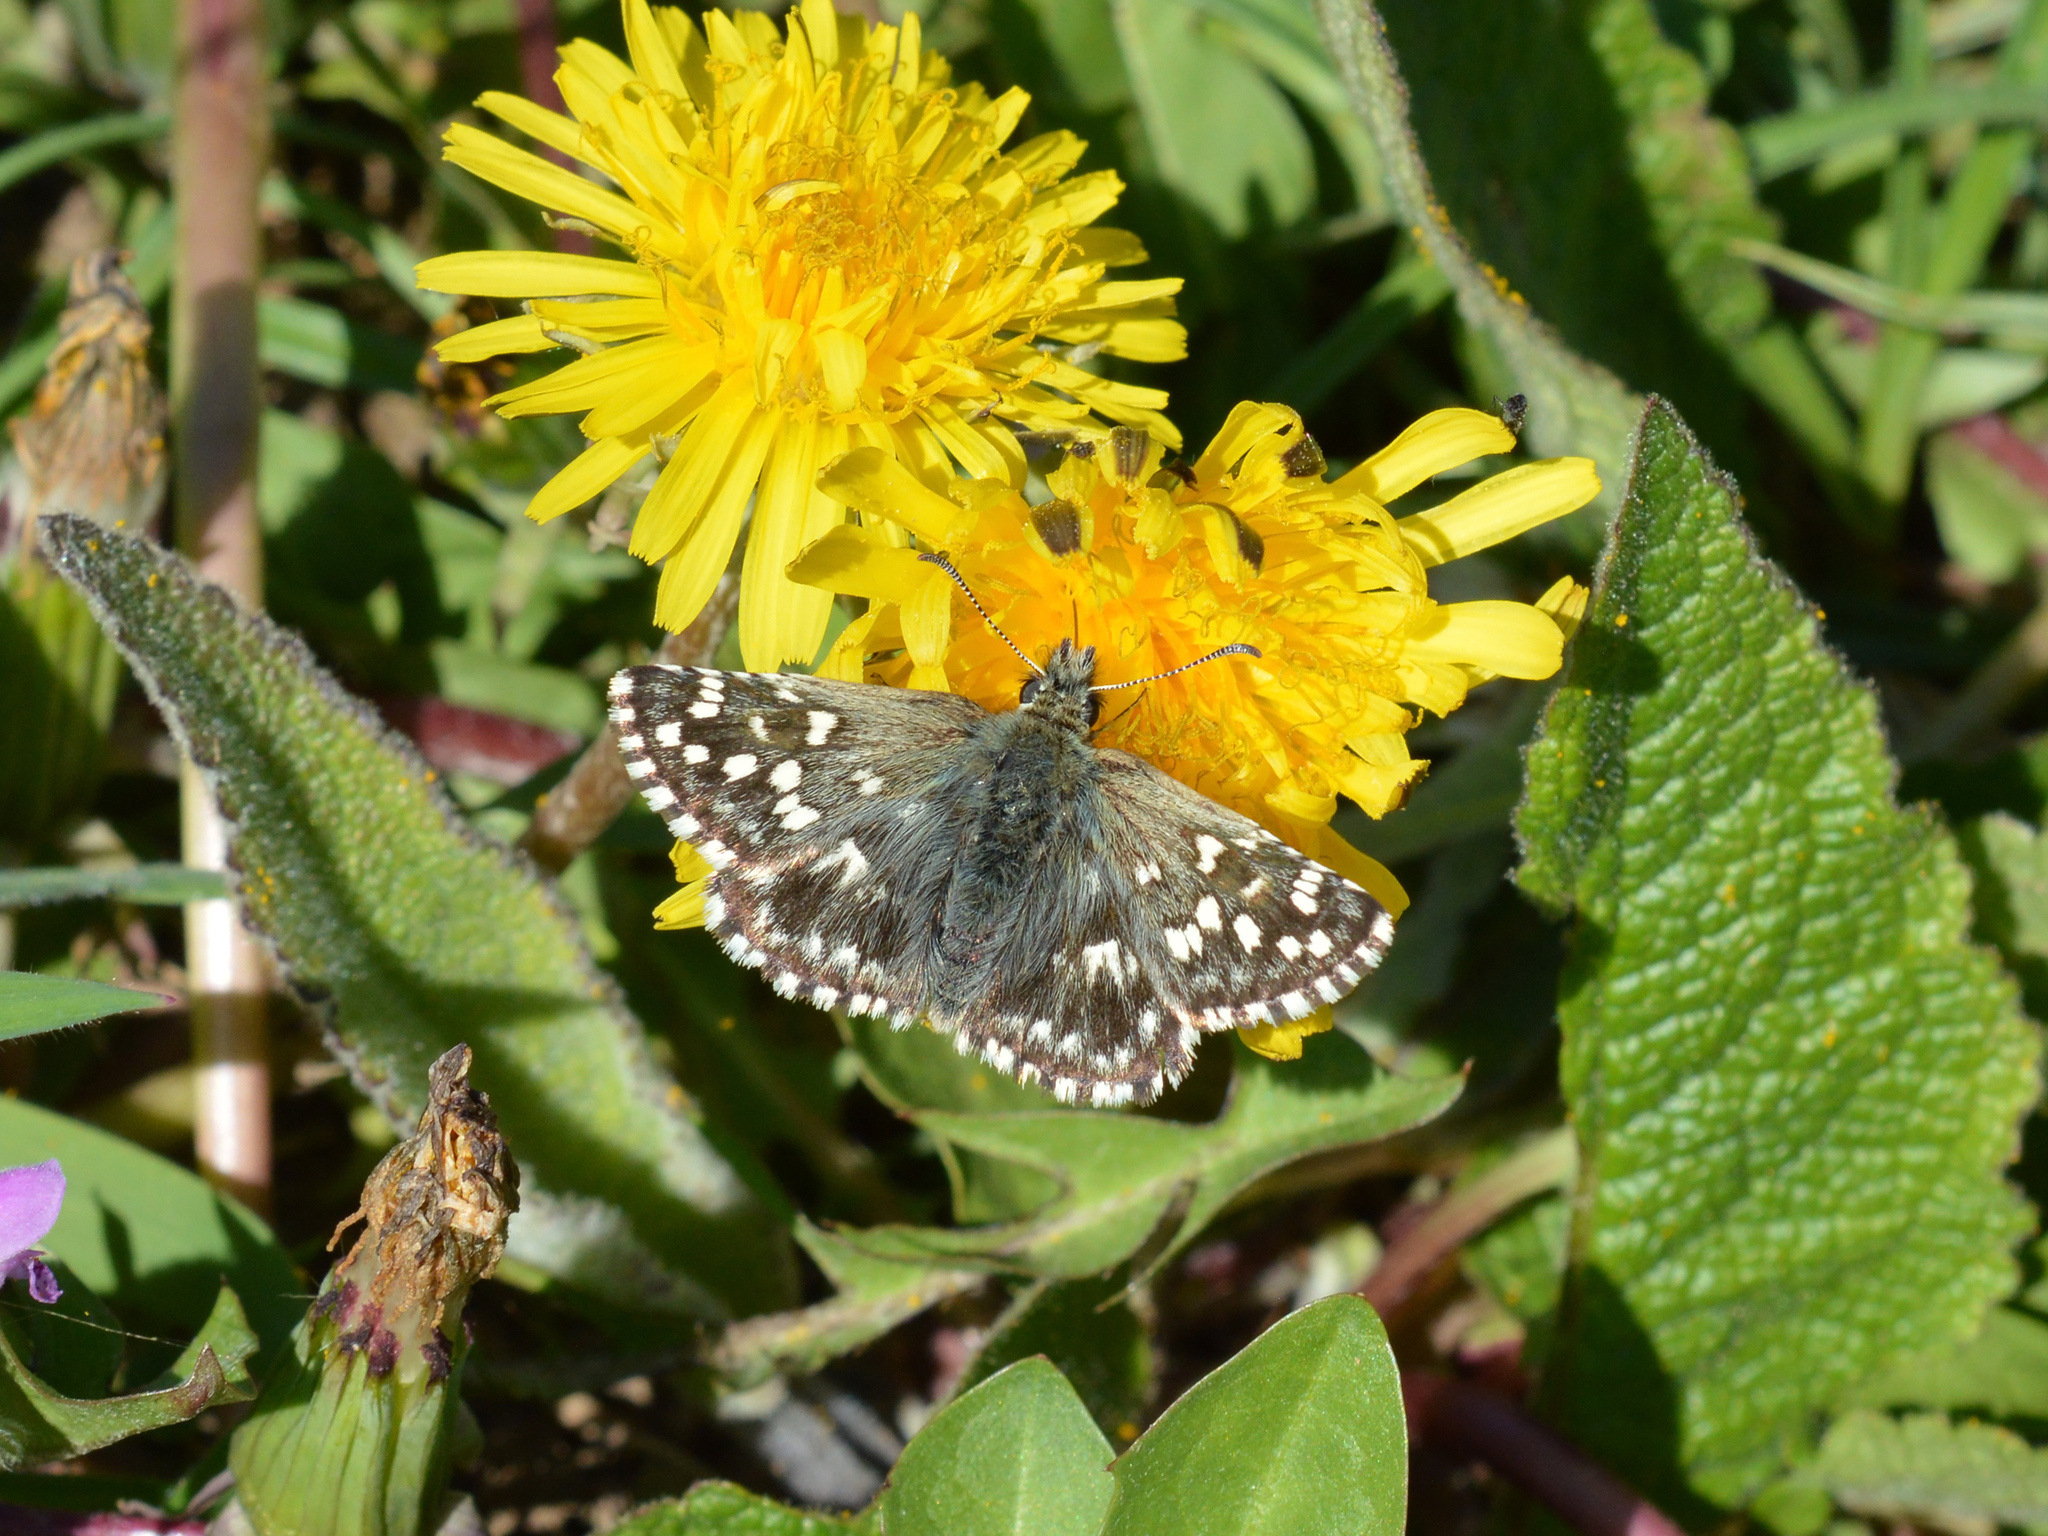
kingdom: Animalia
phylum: Arthropoda
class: Insecta
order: Lepidoptera
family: Hesperiidae
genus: Pyrgus
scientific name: Pyrgus malvae
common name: Grizzled skipper
